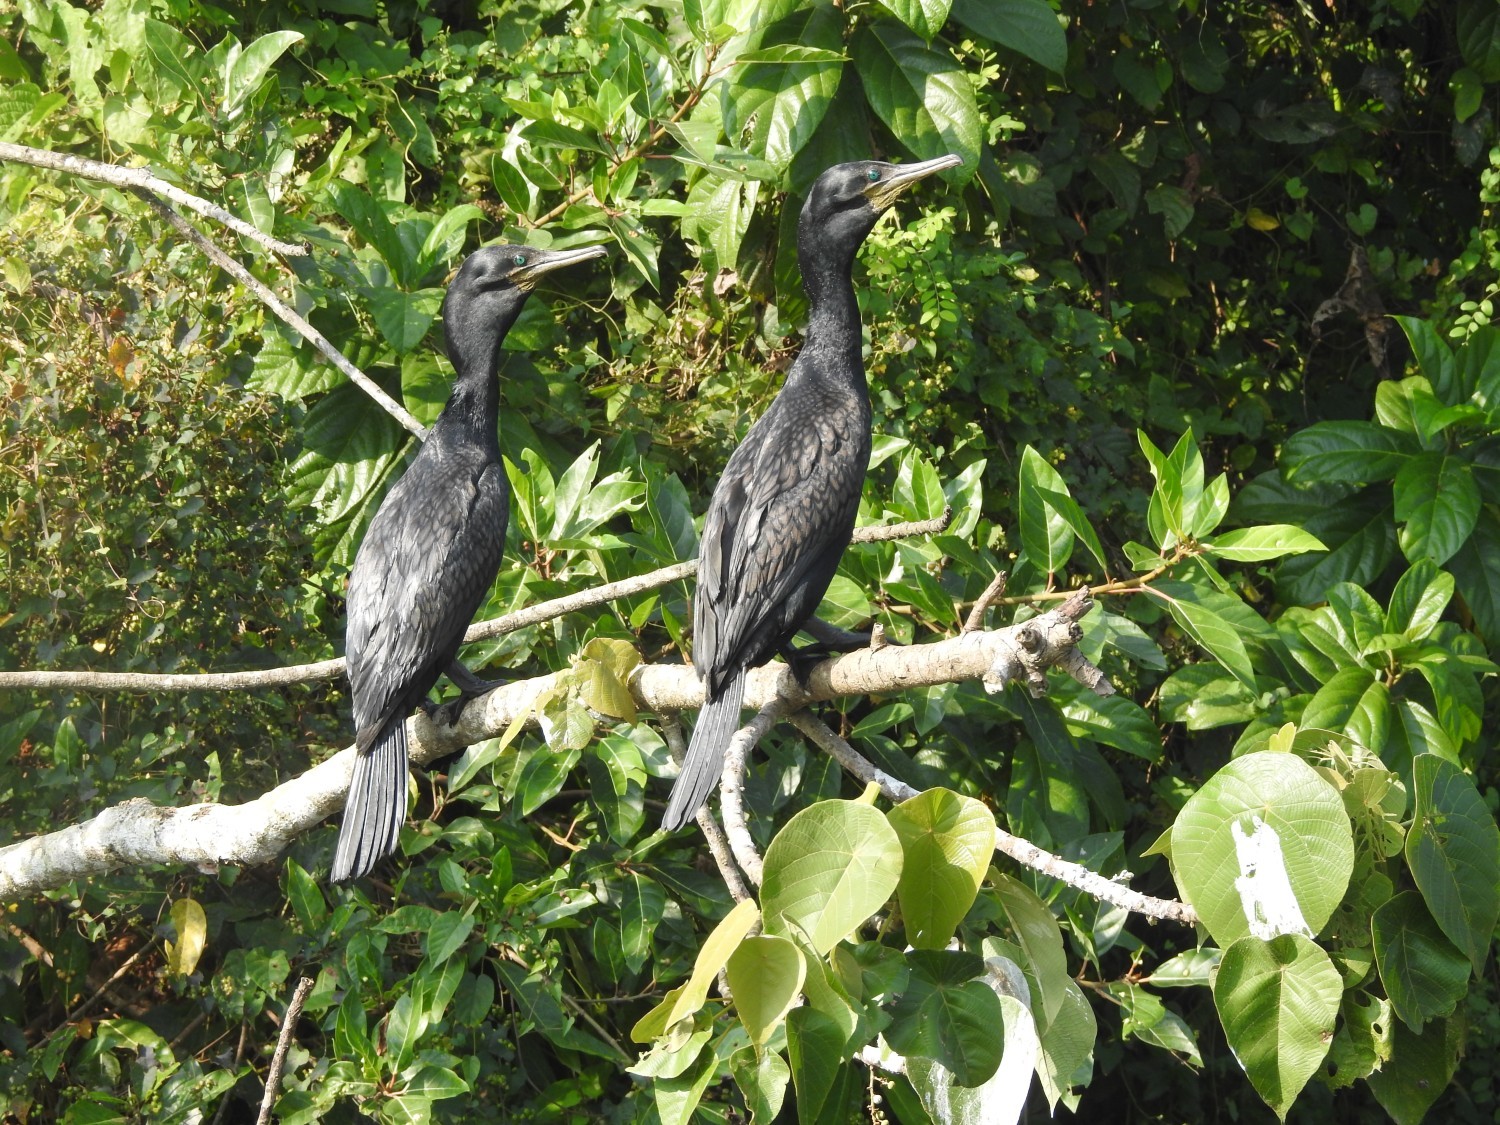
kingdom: Animalia
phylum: Chordata
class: Aves
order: Suliformes
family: Phalacrocoracidae
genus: Phalacrocorax
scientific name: Phalacrocorax fuscicollis
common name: Indian cormorant
